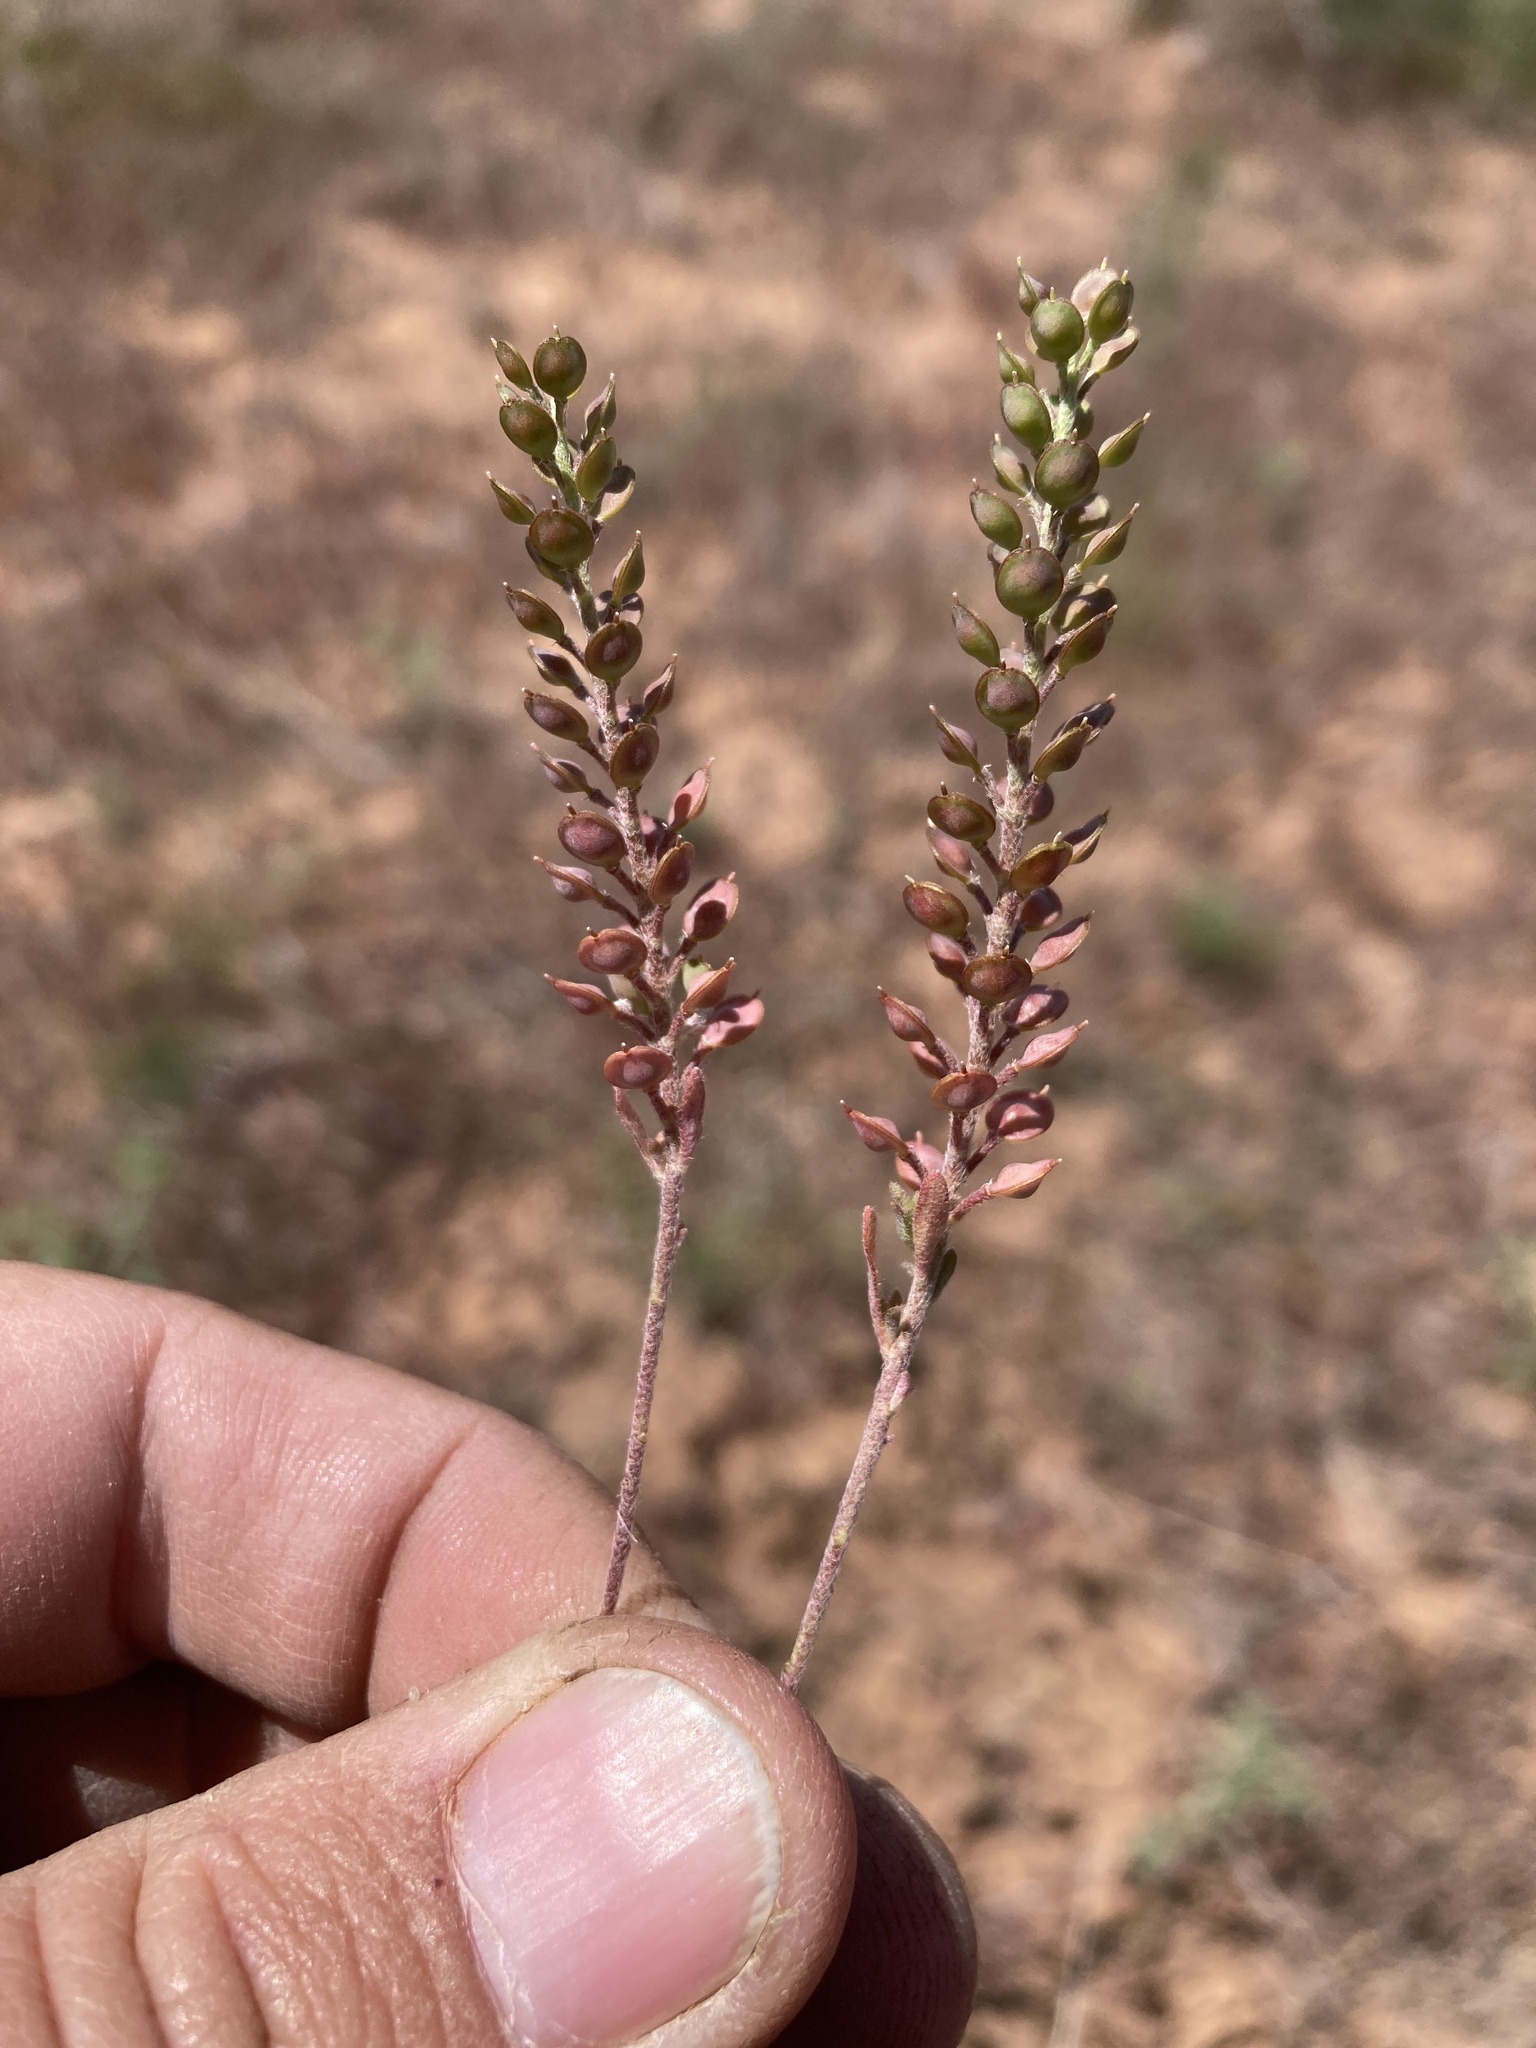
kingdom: Plantae
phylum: Tracheophyta
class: Magnoliopsida
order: Brassicales
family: Brassicaceae
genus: Alyssum
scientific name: Alyssum turkestanicum
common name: Desert alyssum
